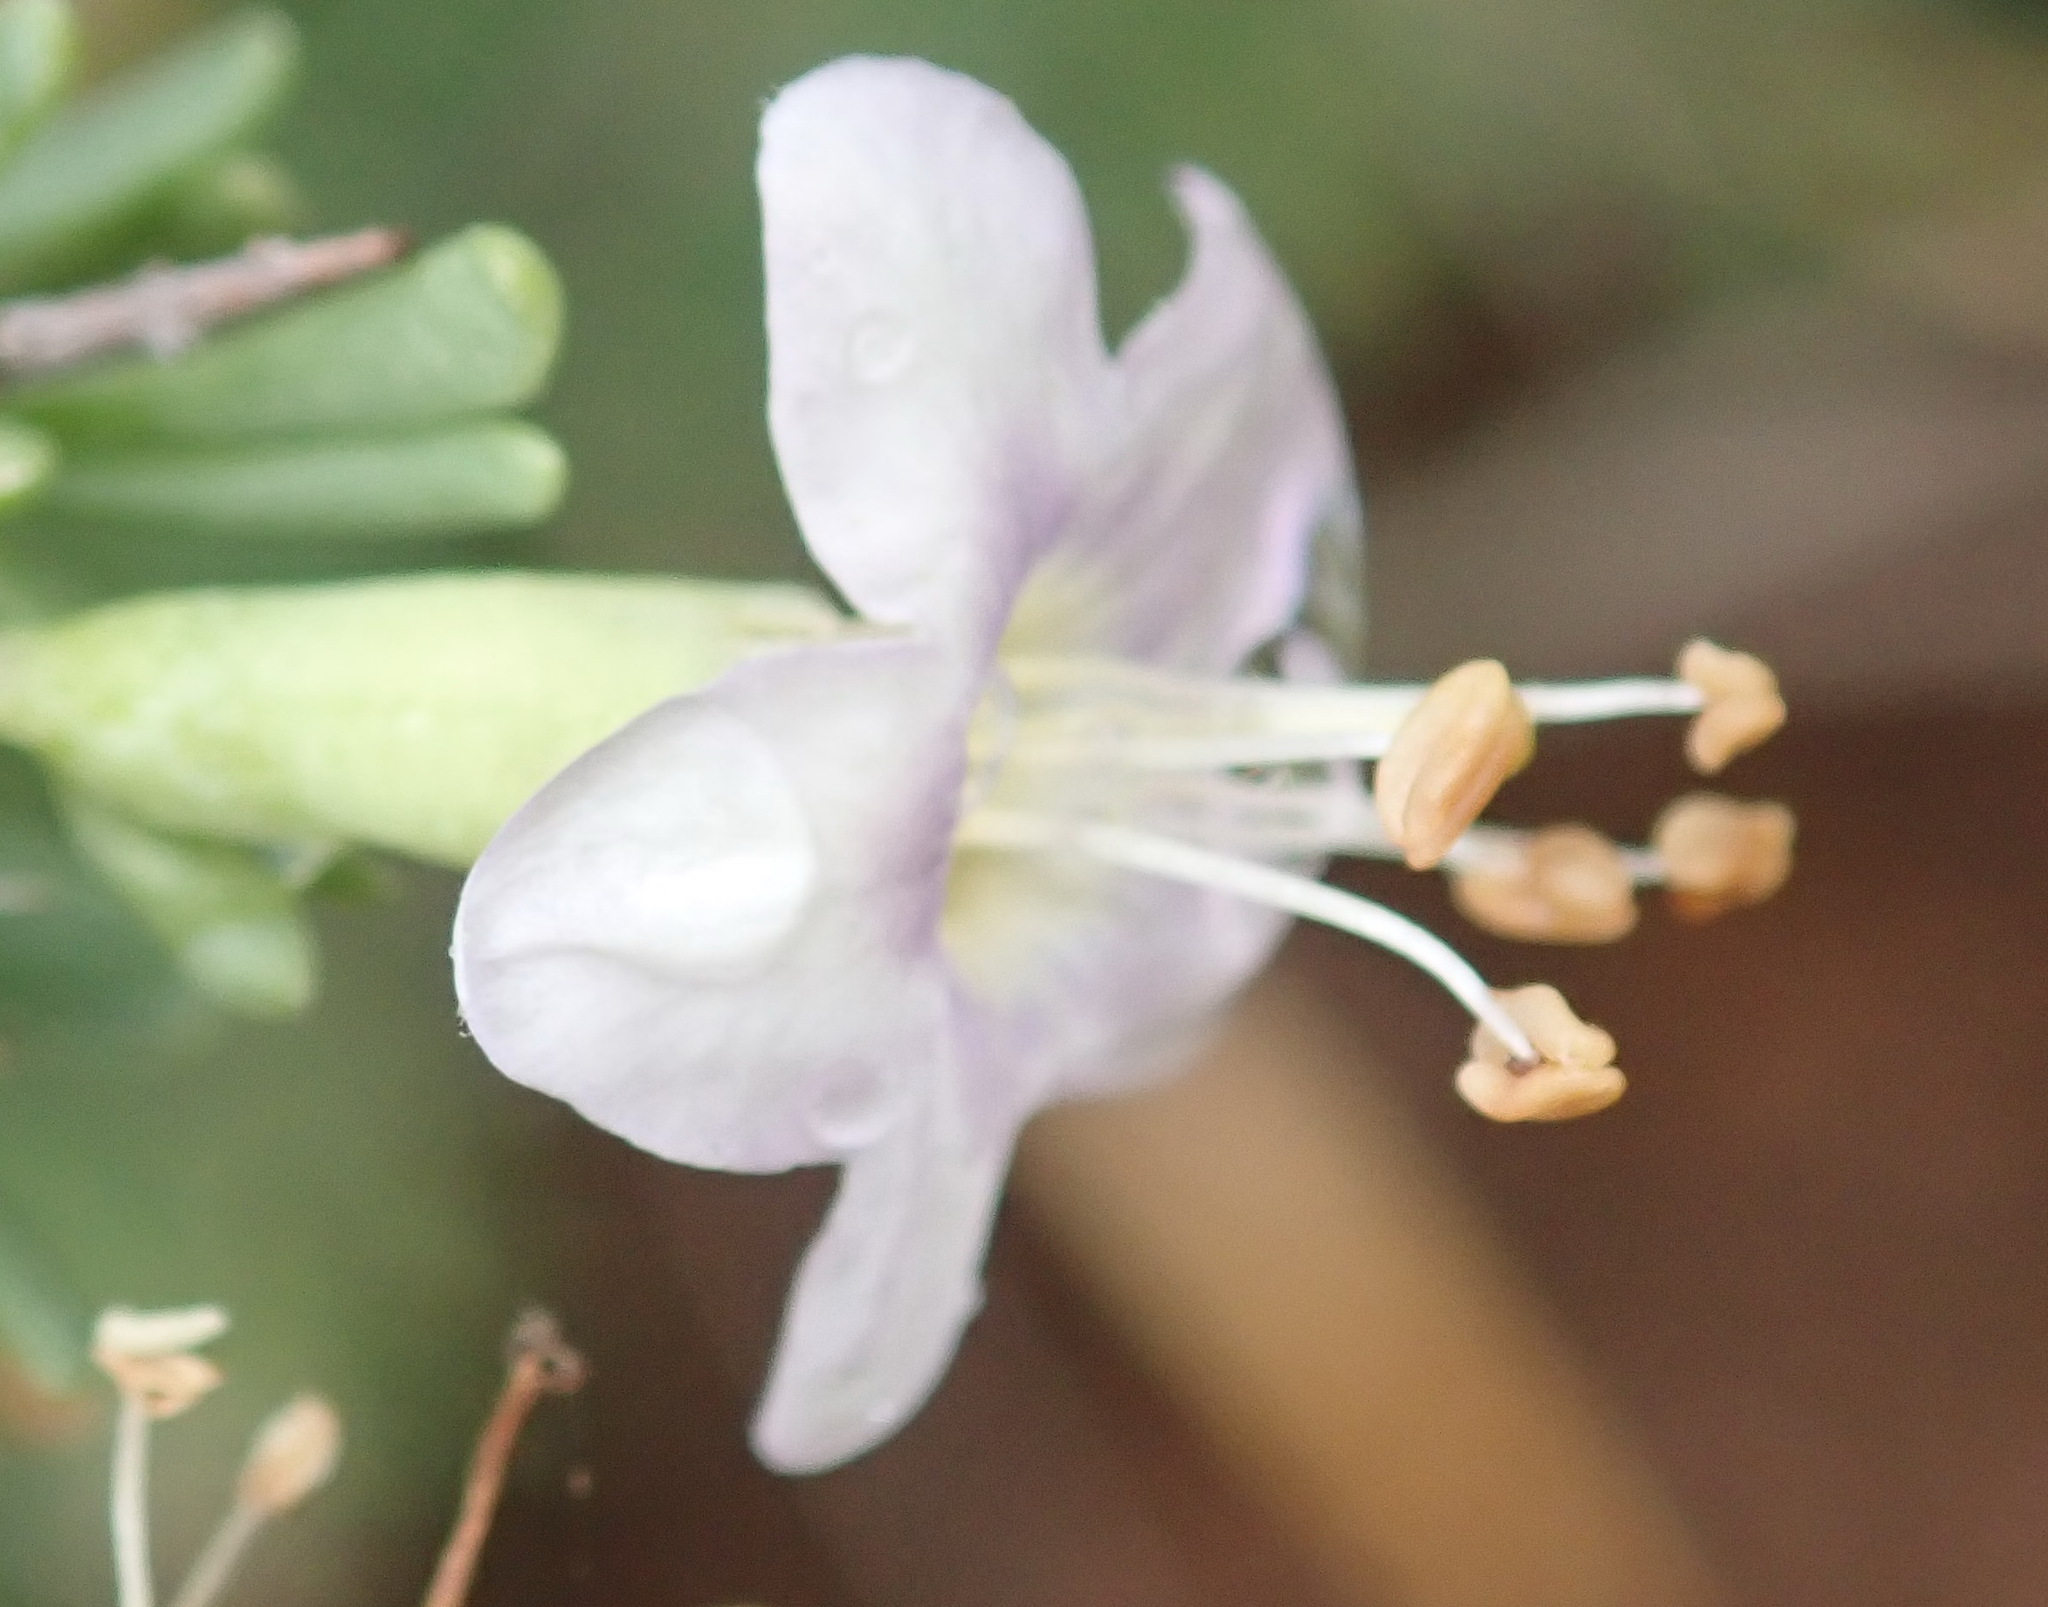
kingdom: Plantae
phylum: Tracheophyta
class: Magnoliopsida
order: Solanales
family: Solanaceae
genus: Lycium
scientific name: Lycium pumilum
